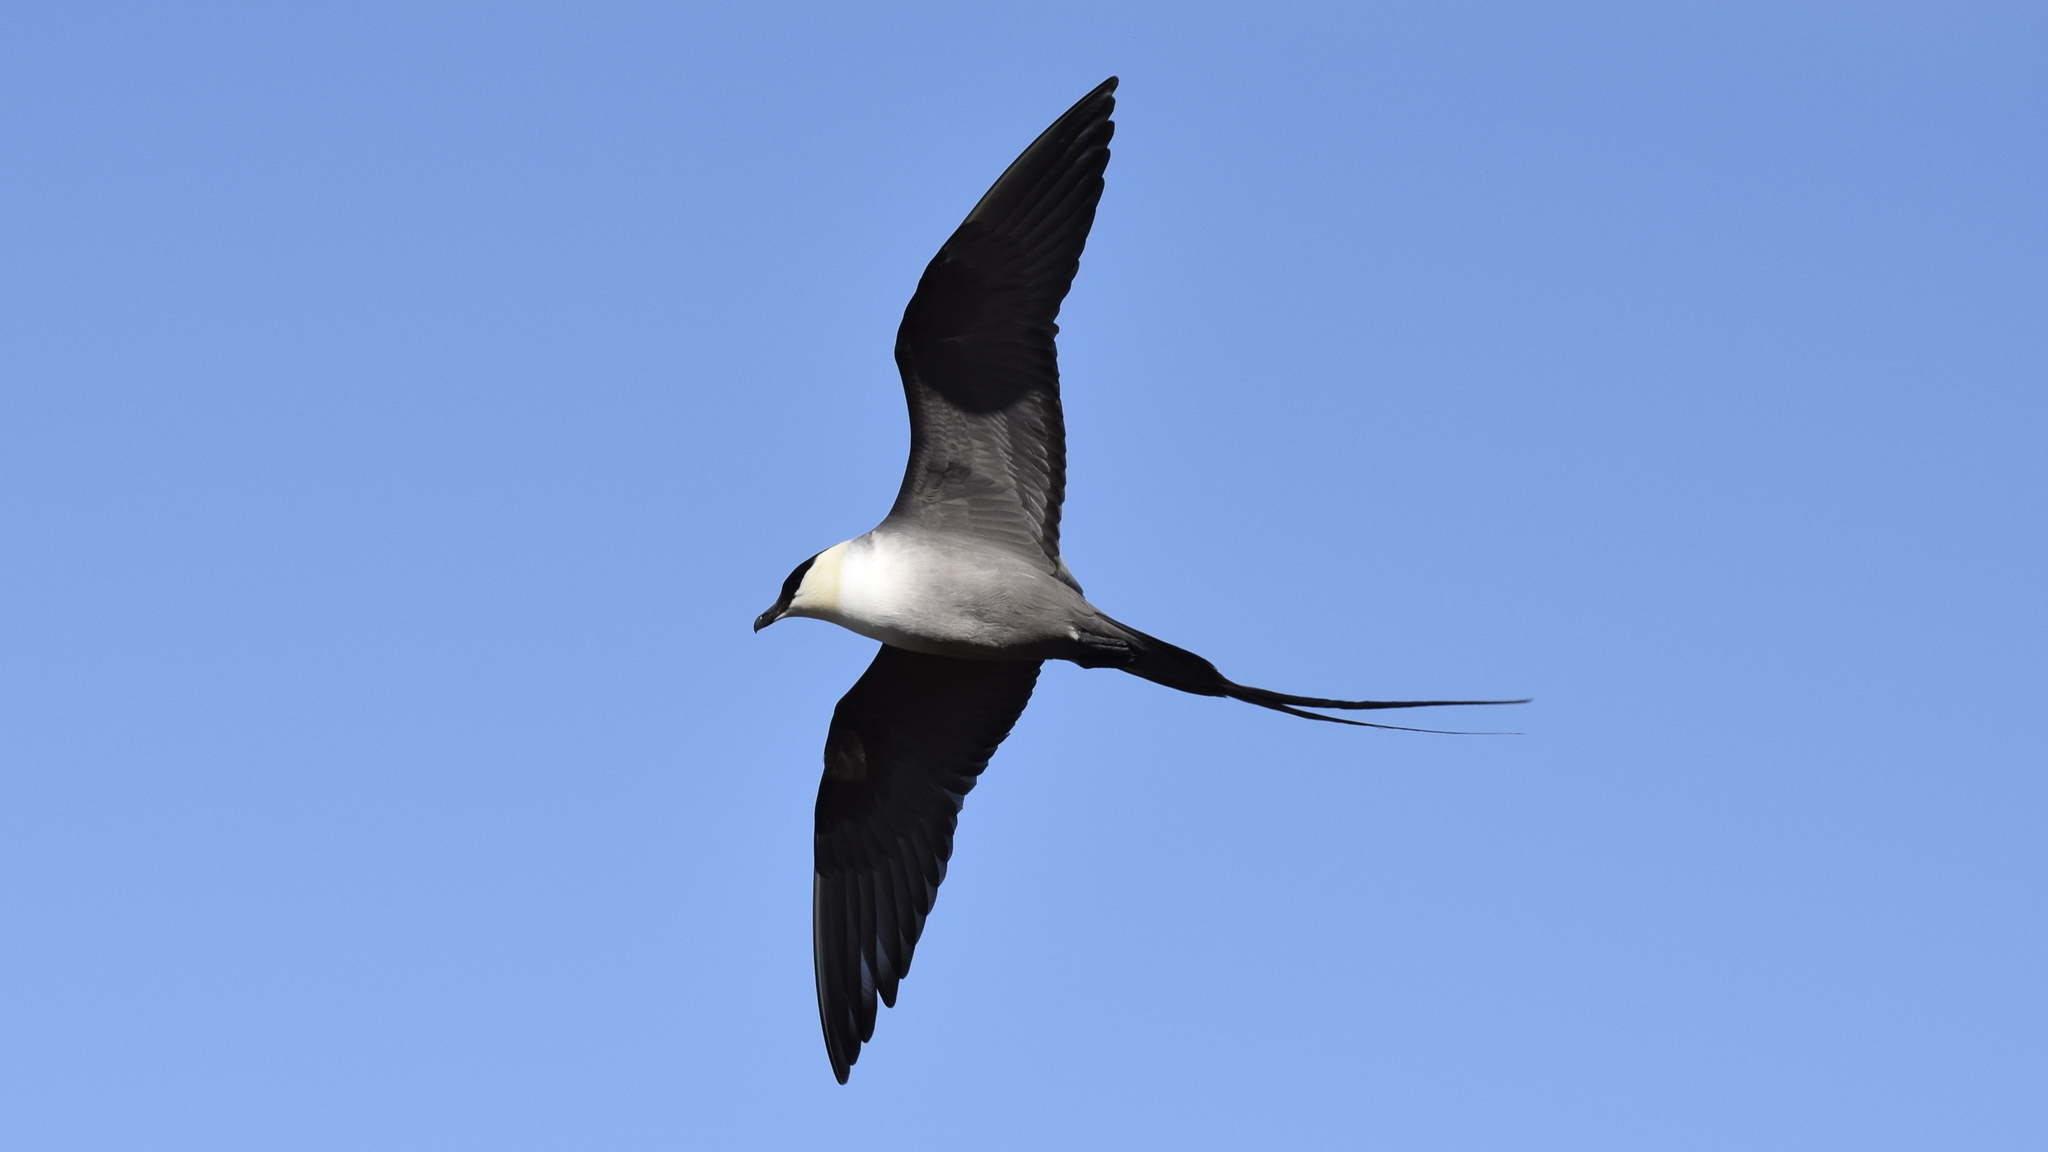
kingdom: Animalia
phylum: Chordata
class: Aves
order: Charadriiformes
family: Stercorariidae
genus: Stercorarius
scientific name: Stercorarius longicaudus
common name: Long-tailed jaeger
